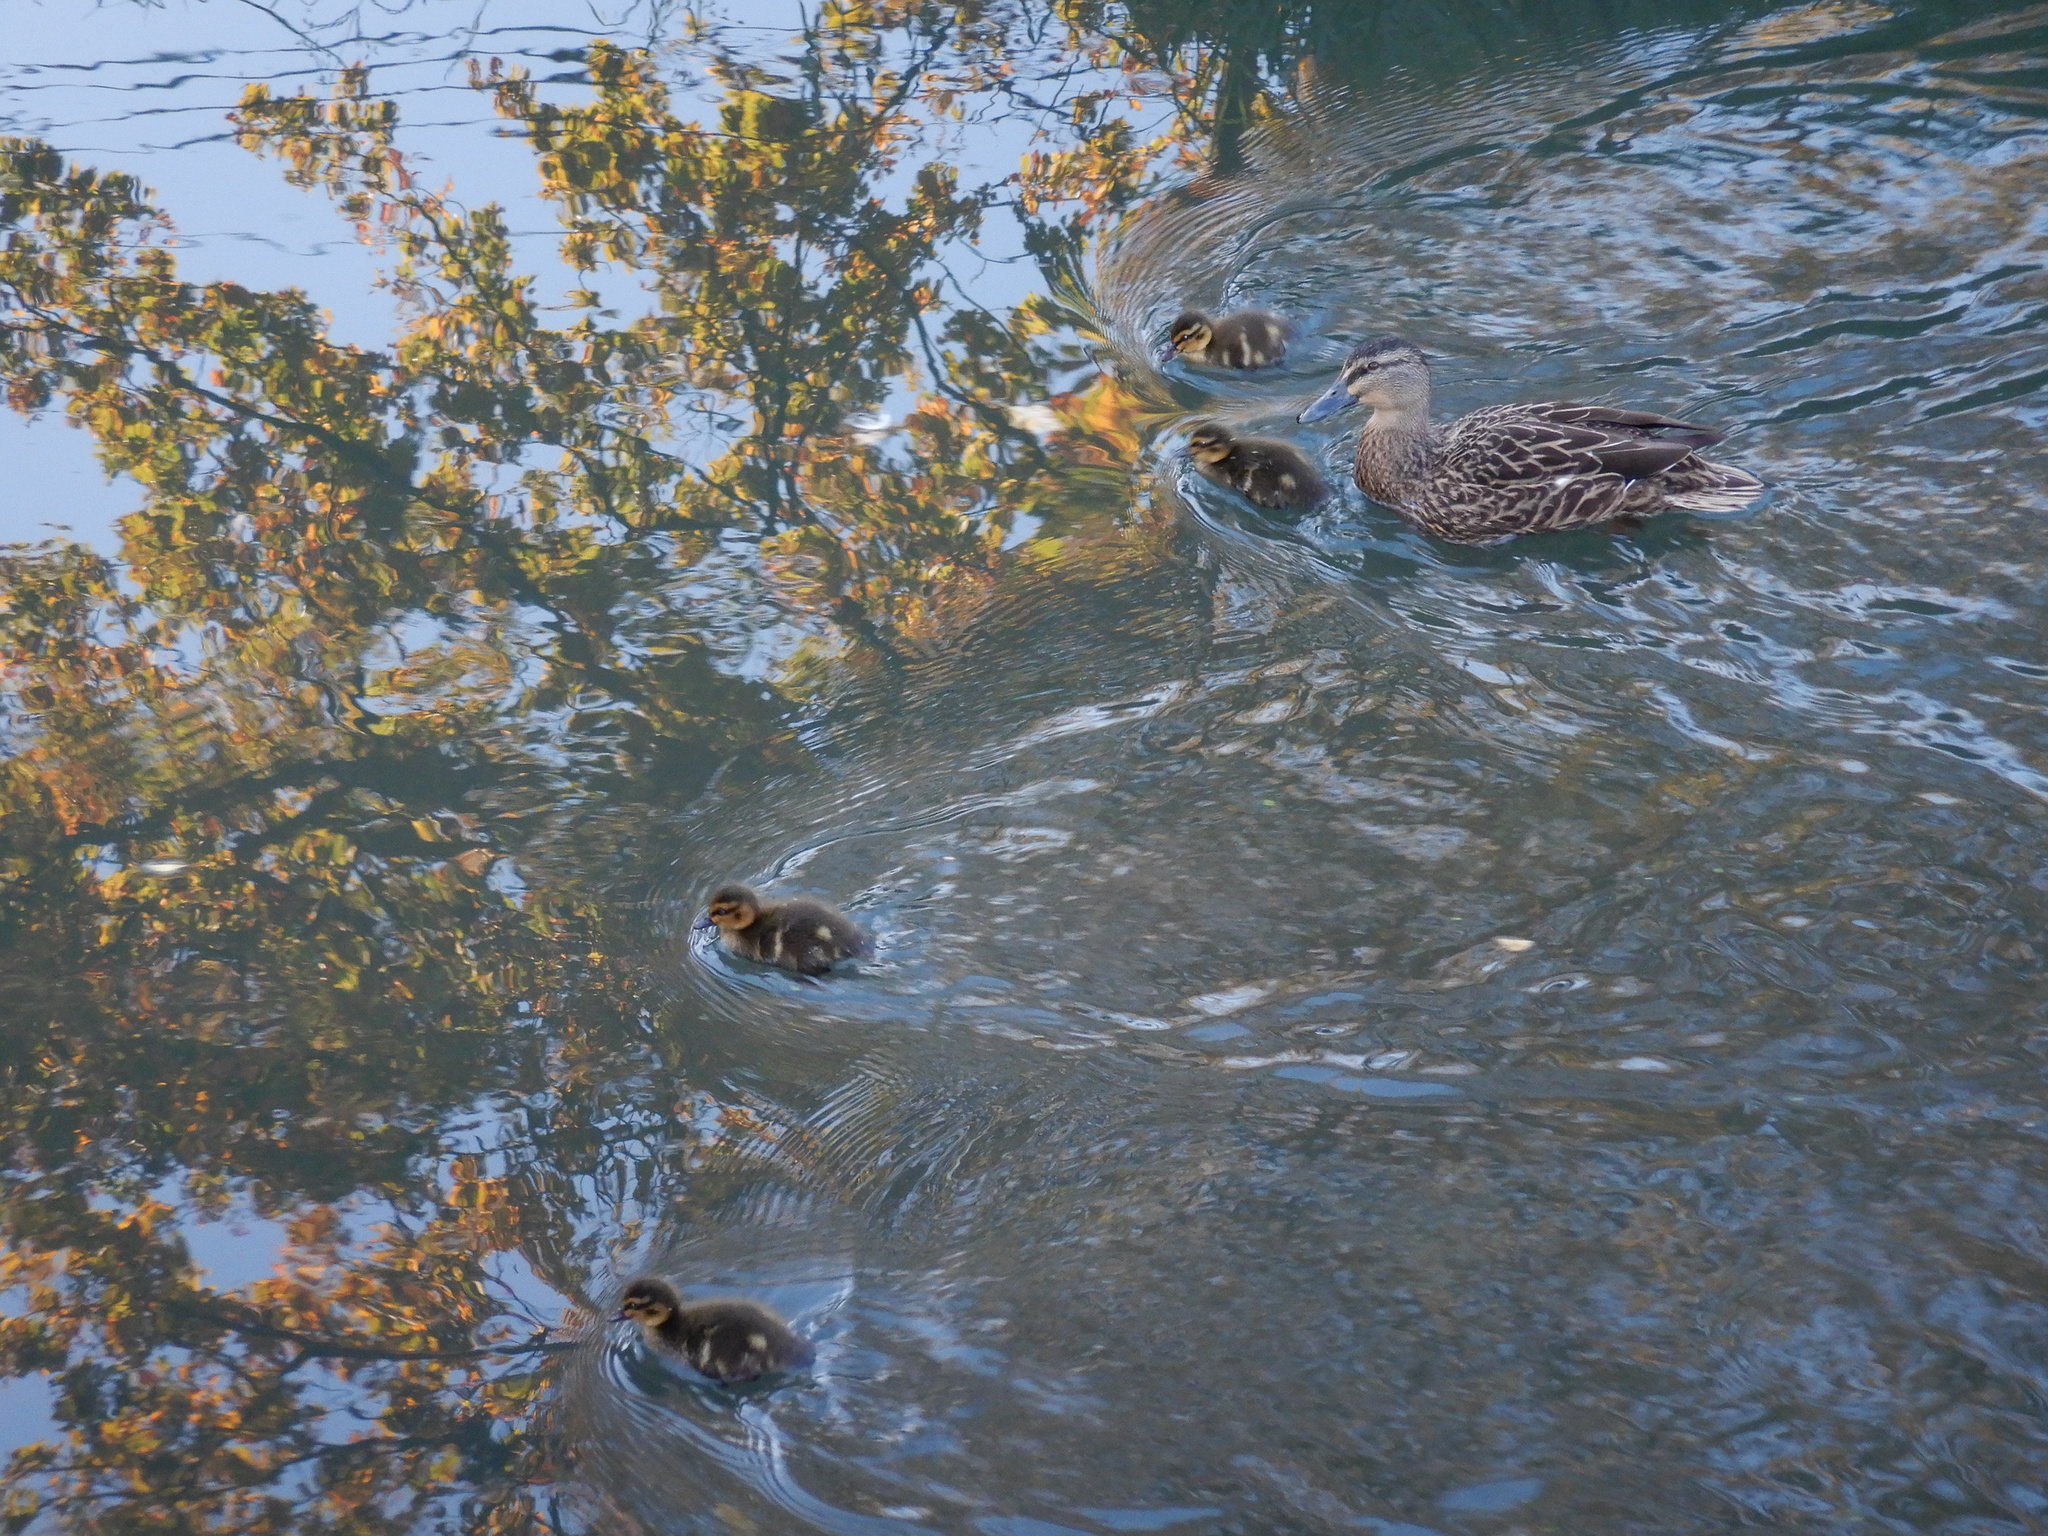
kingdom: Animalia
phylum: Chordata
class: Aves
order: Anseriformes
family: Anatidae
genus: Anas
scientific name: Anas
